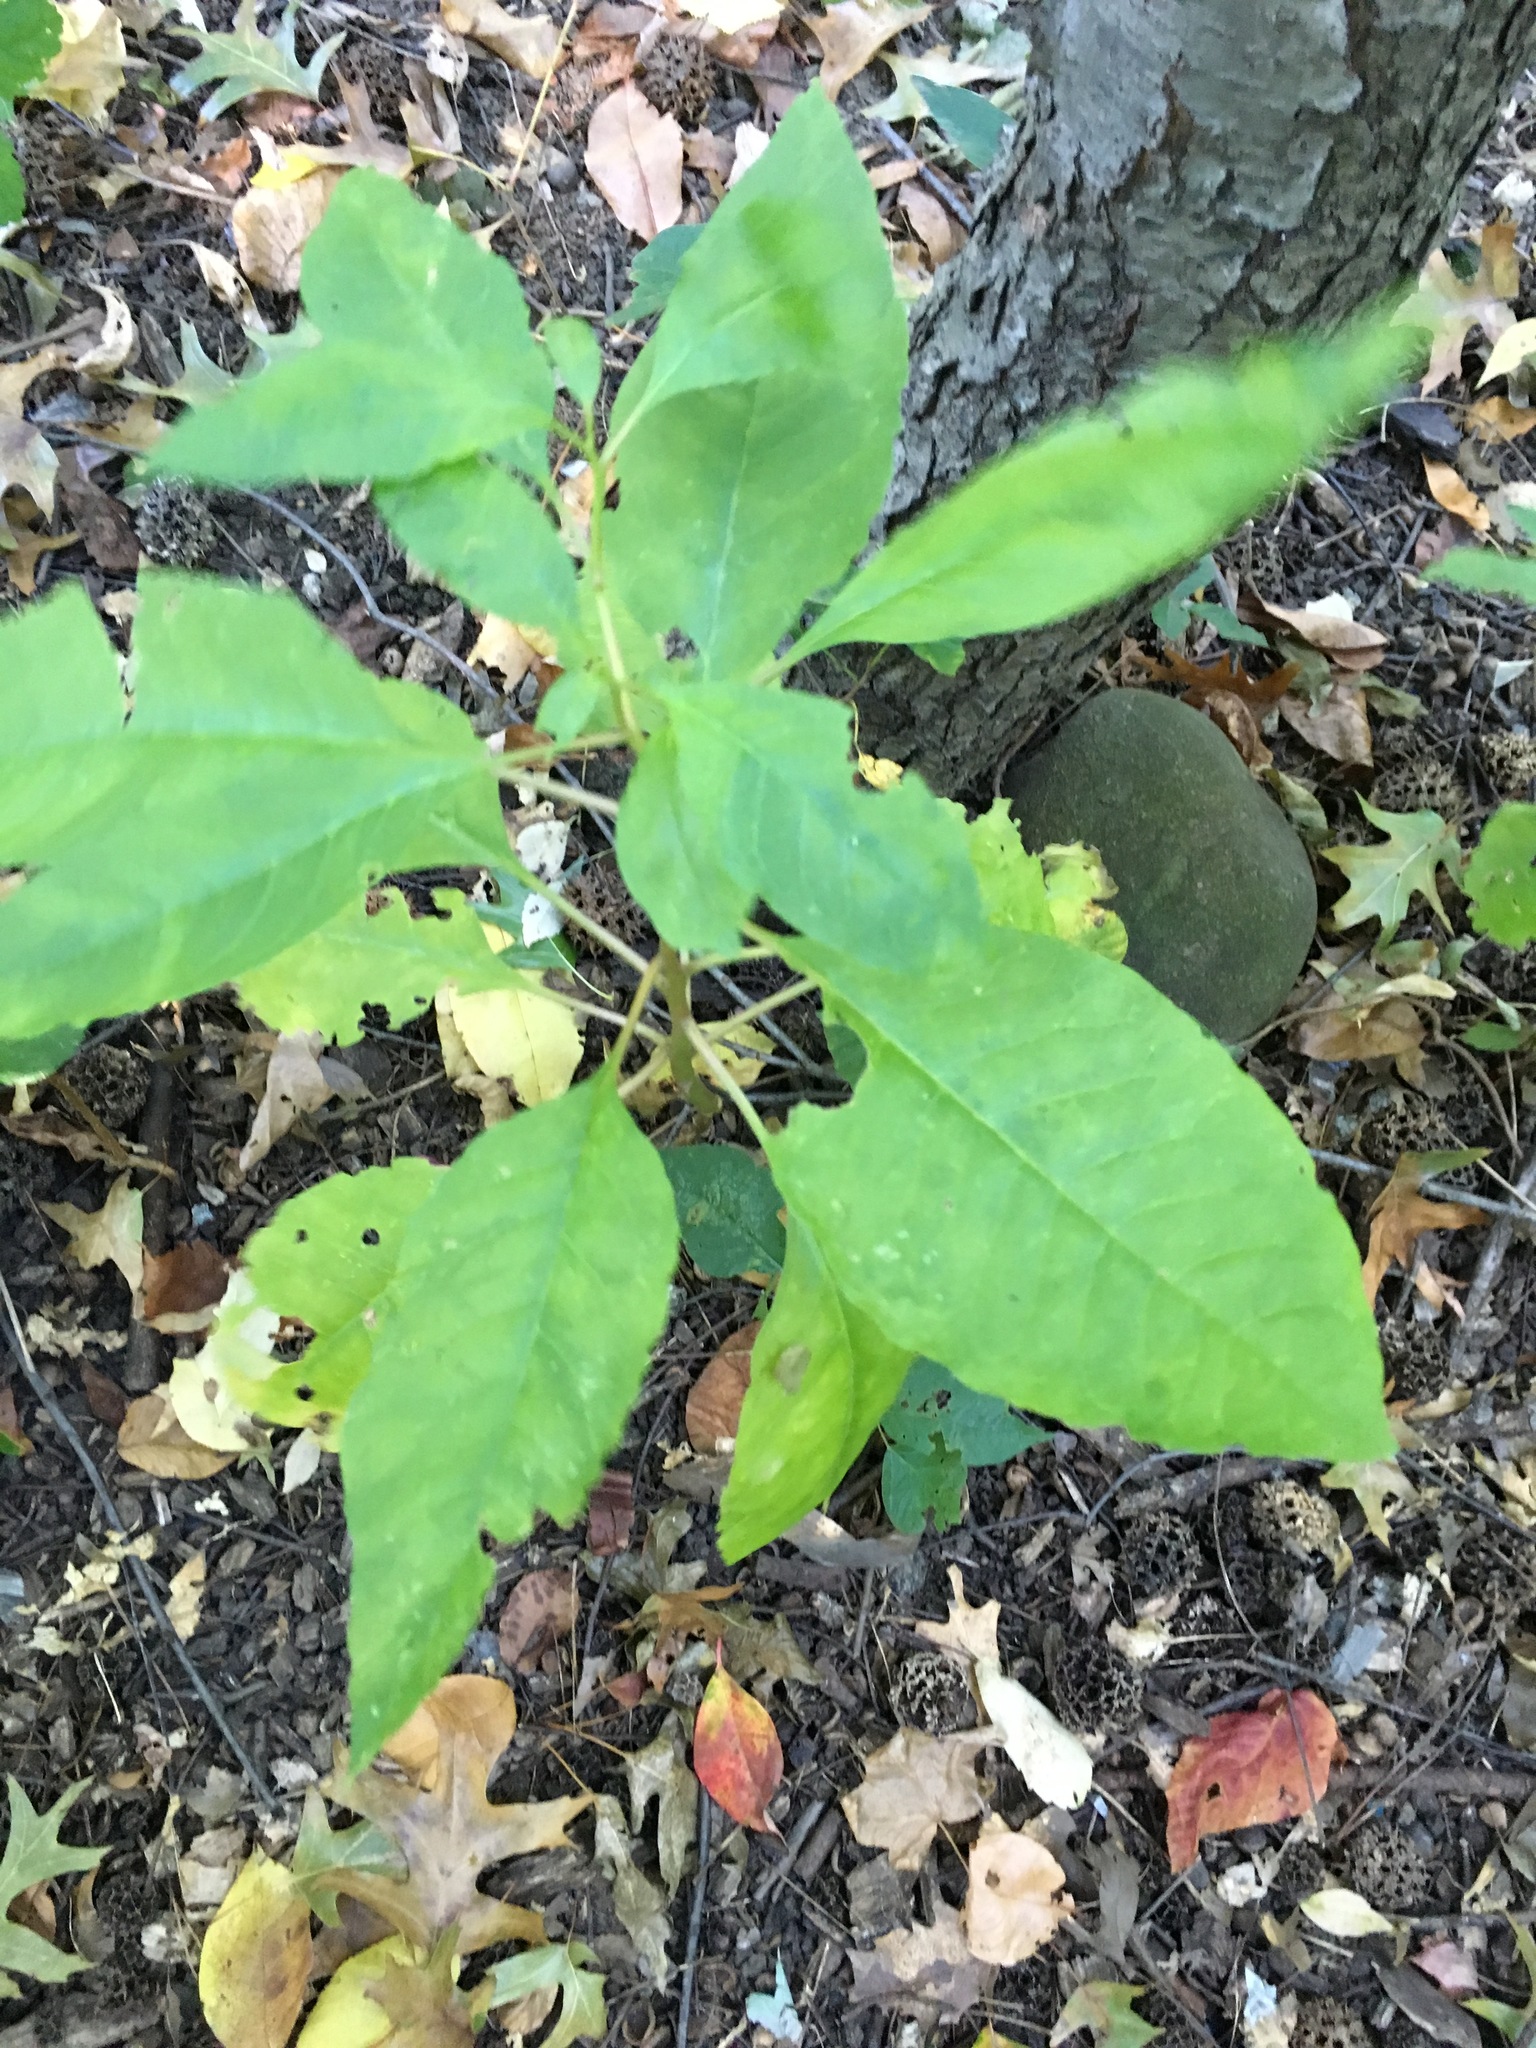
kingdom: Plantae
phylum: Tracheophyta
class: Magnoliopsida
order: Caryophyllales
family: Phytolaccaceae
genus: Phytolacca
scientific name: Phytolacca americana
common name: American pokeweed
